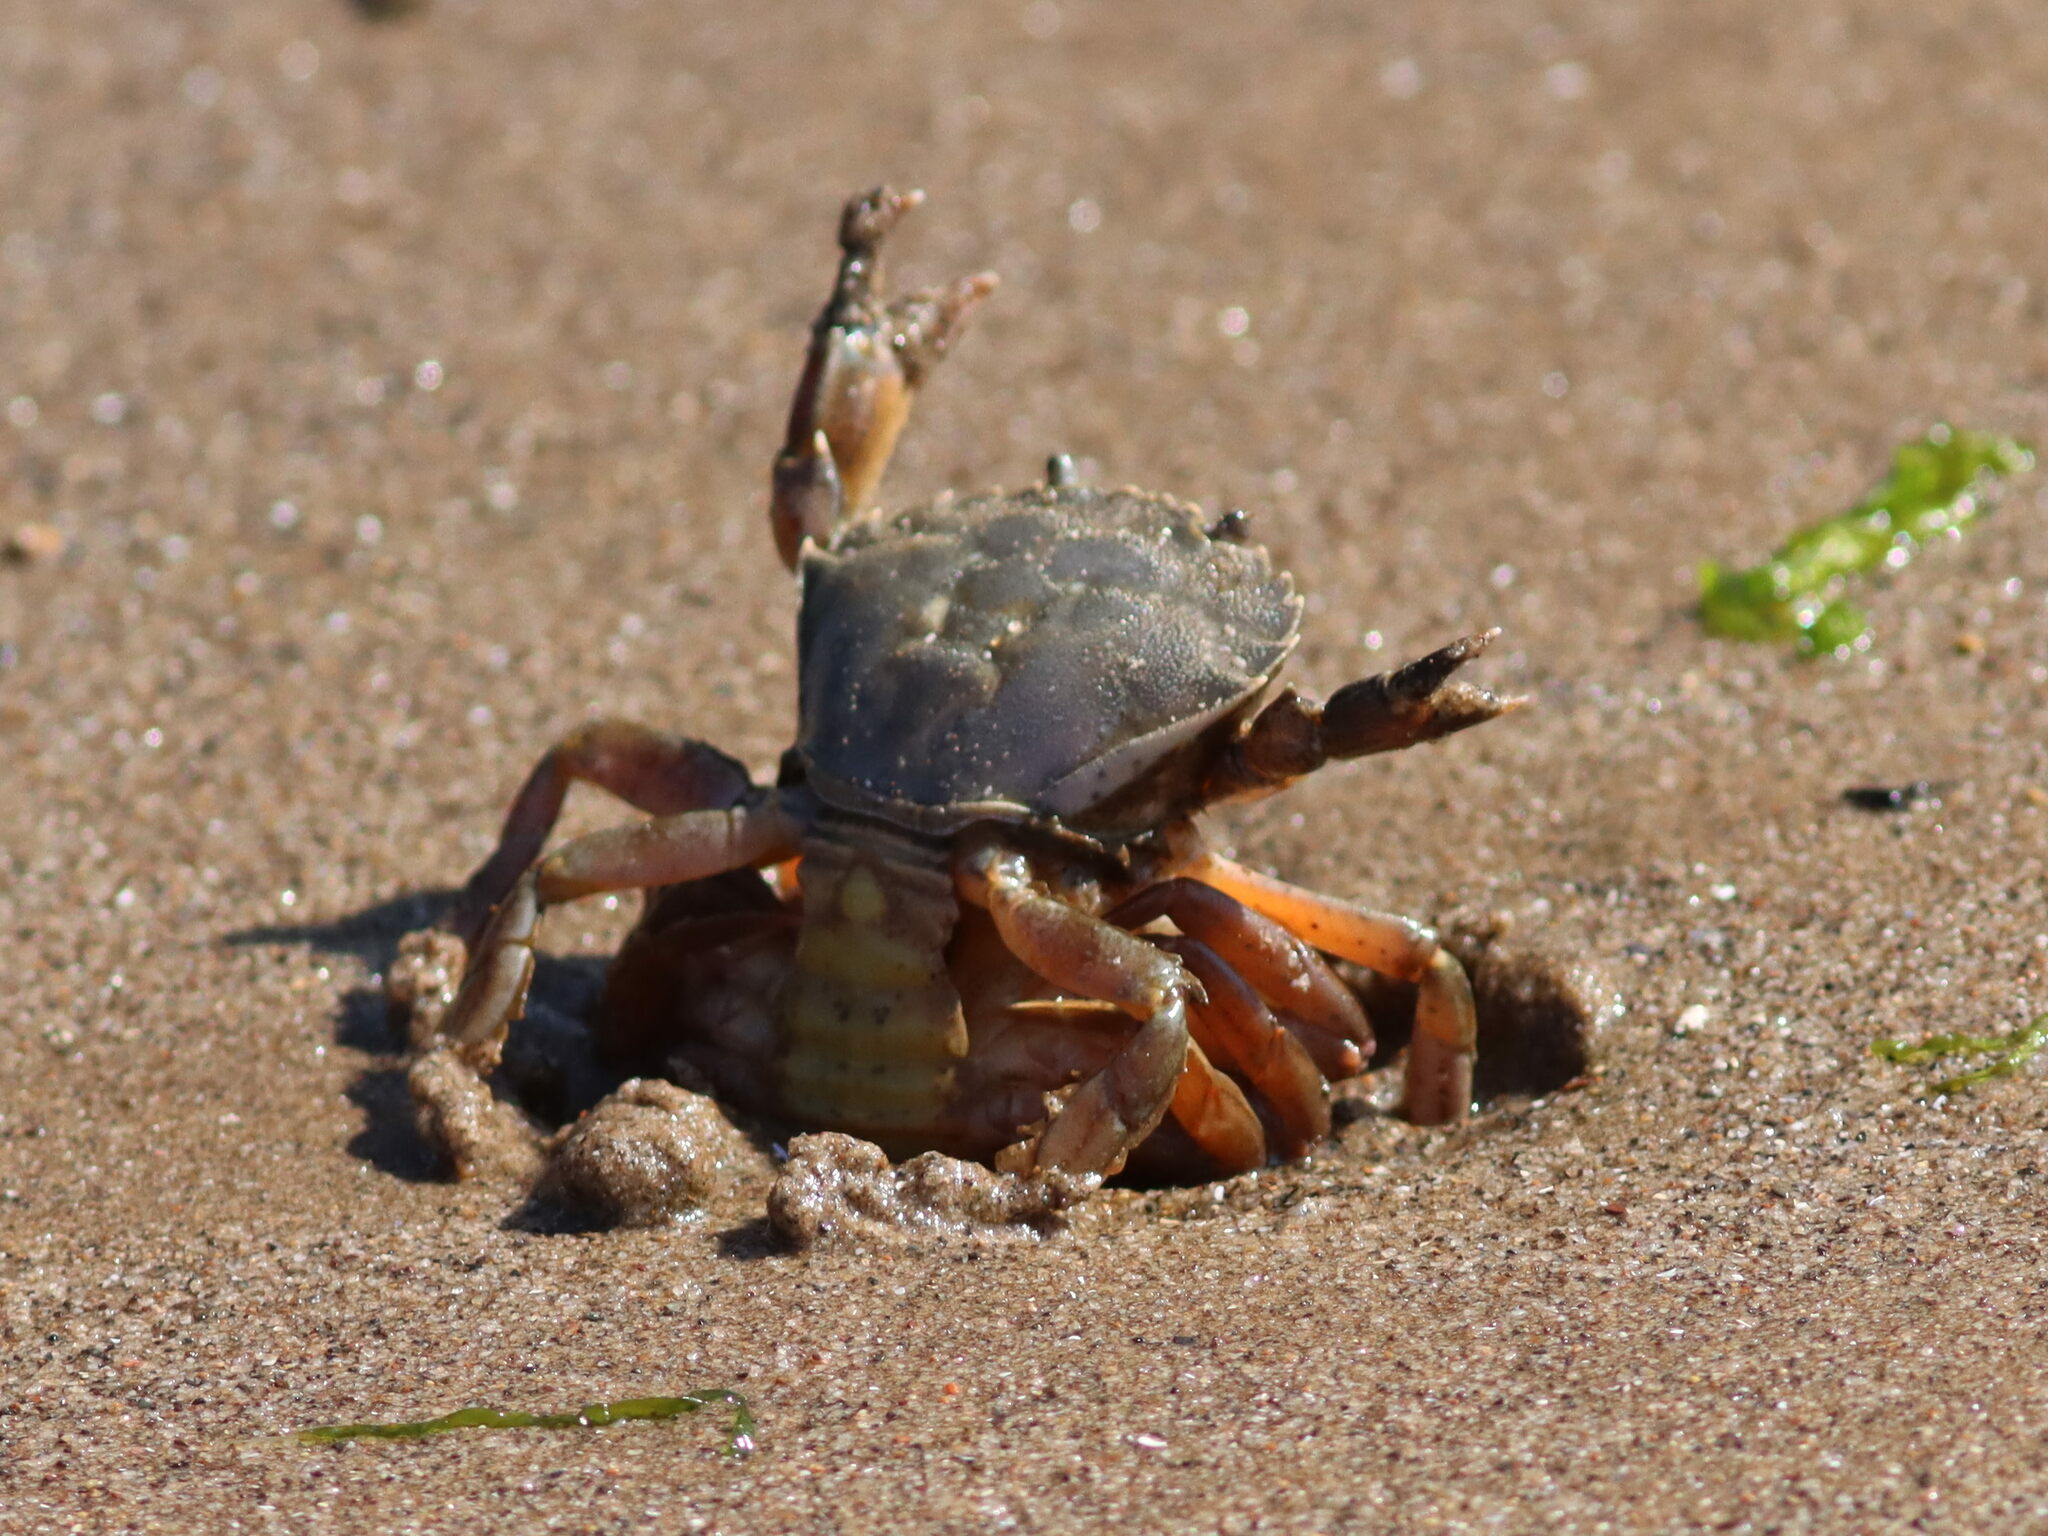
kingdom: Animalia
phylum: Arthropoda
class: Malacostraca
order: Decapoda
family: Carcinidae
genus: Carcinus
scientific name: Carcinus maenas
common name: European green crab
